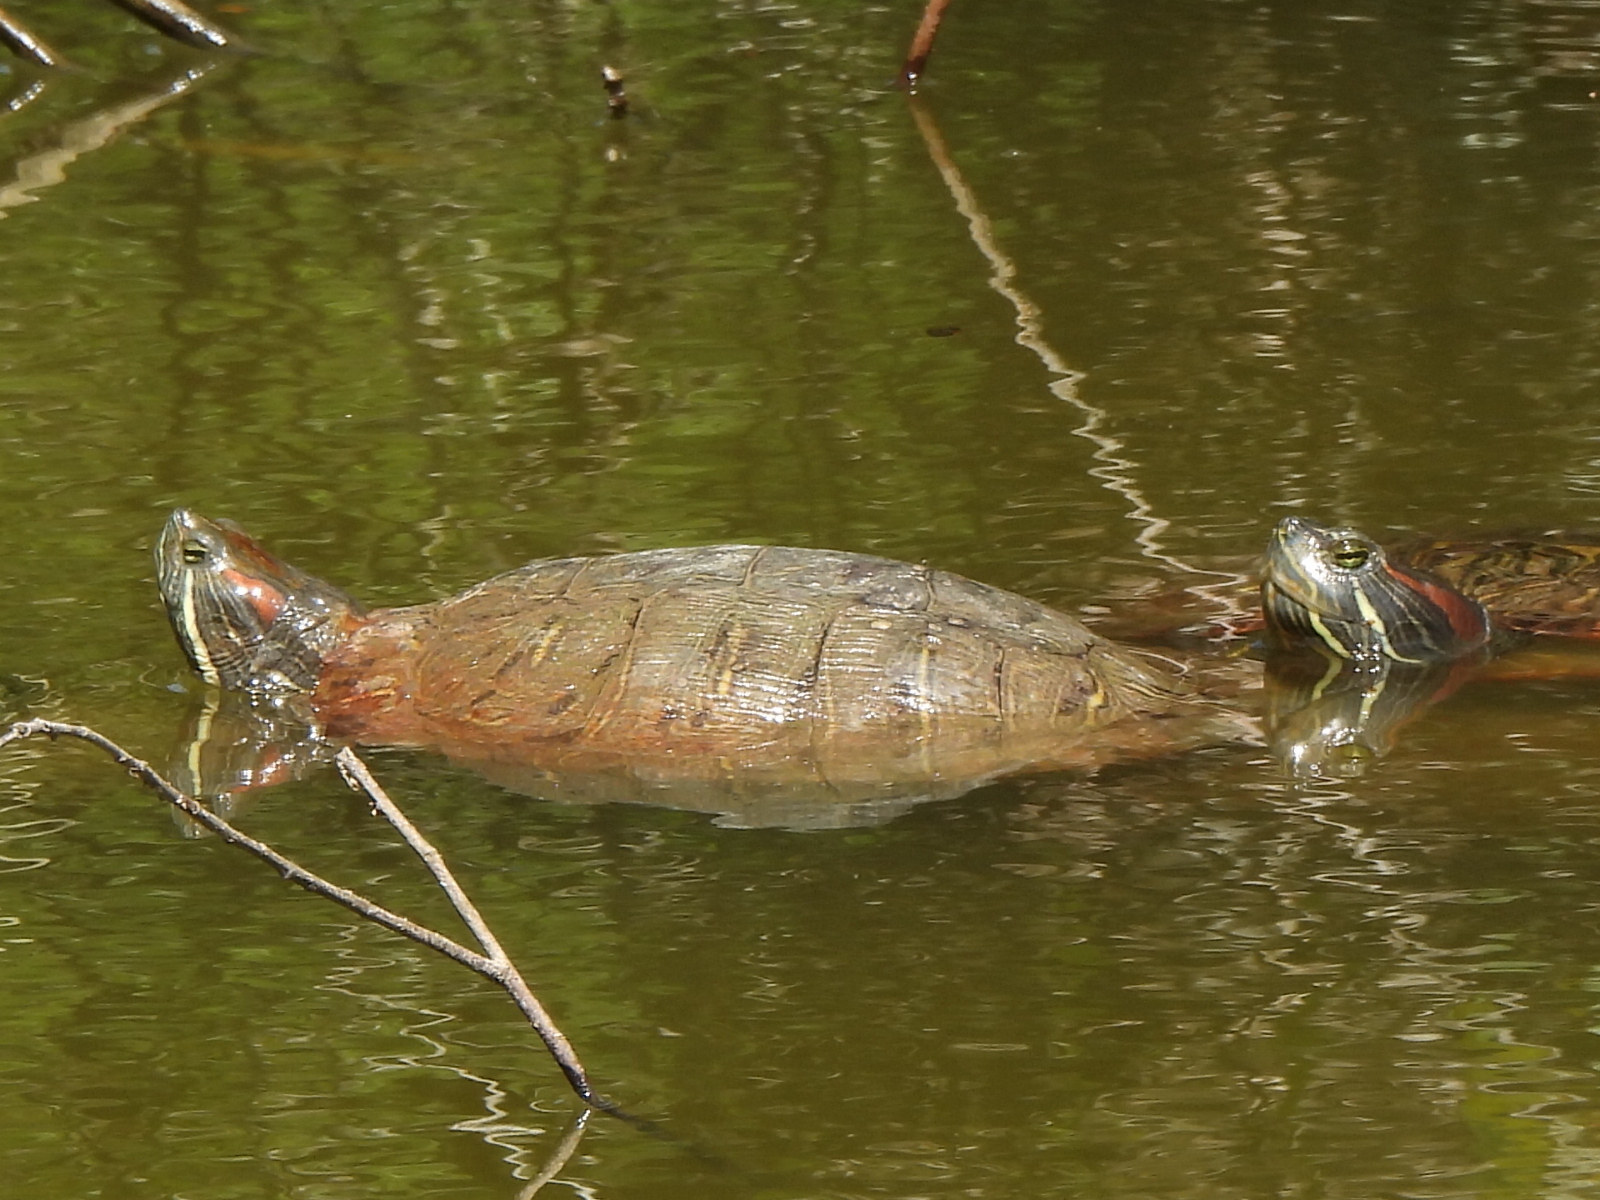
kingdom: Animalia
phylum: Chordata
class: Testudines
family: Emydidae
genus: Trachemys
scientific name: Trachemys scripta
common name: Slider
